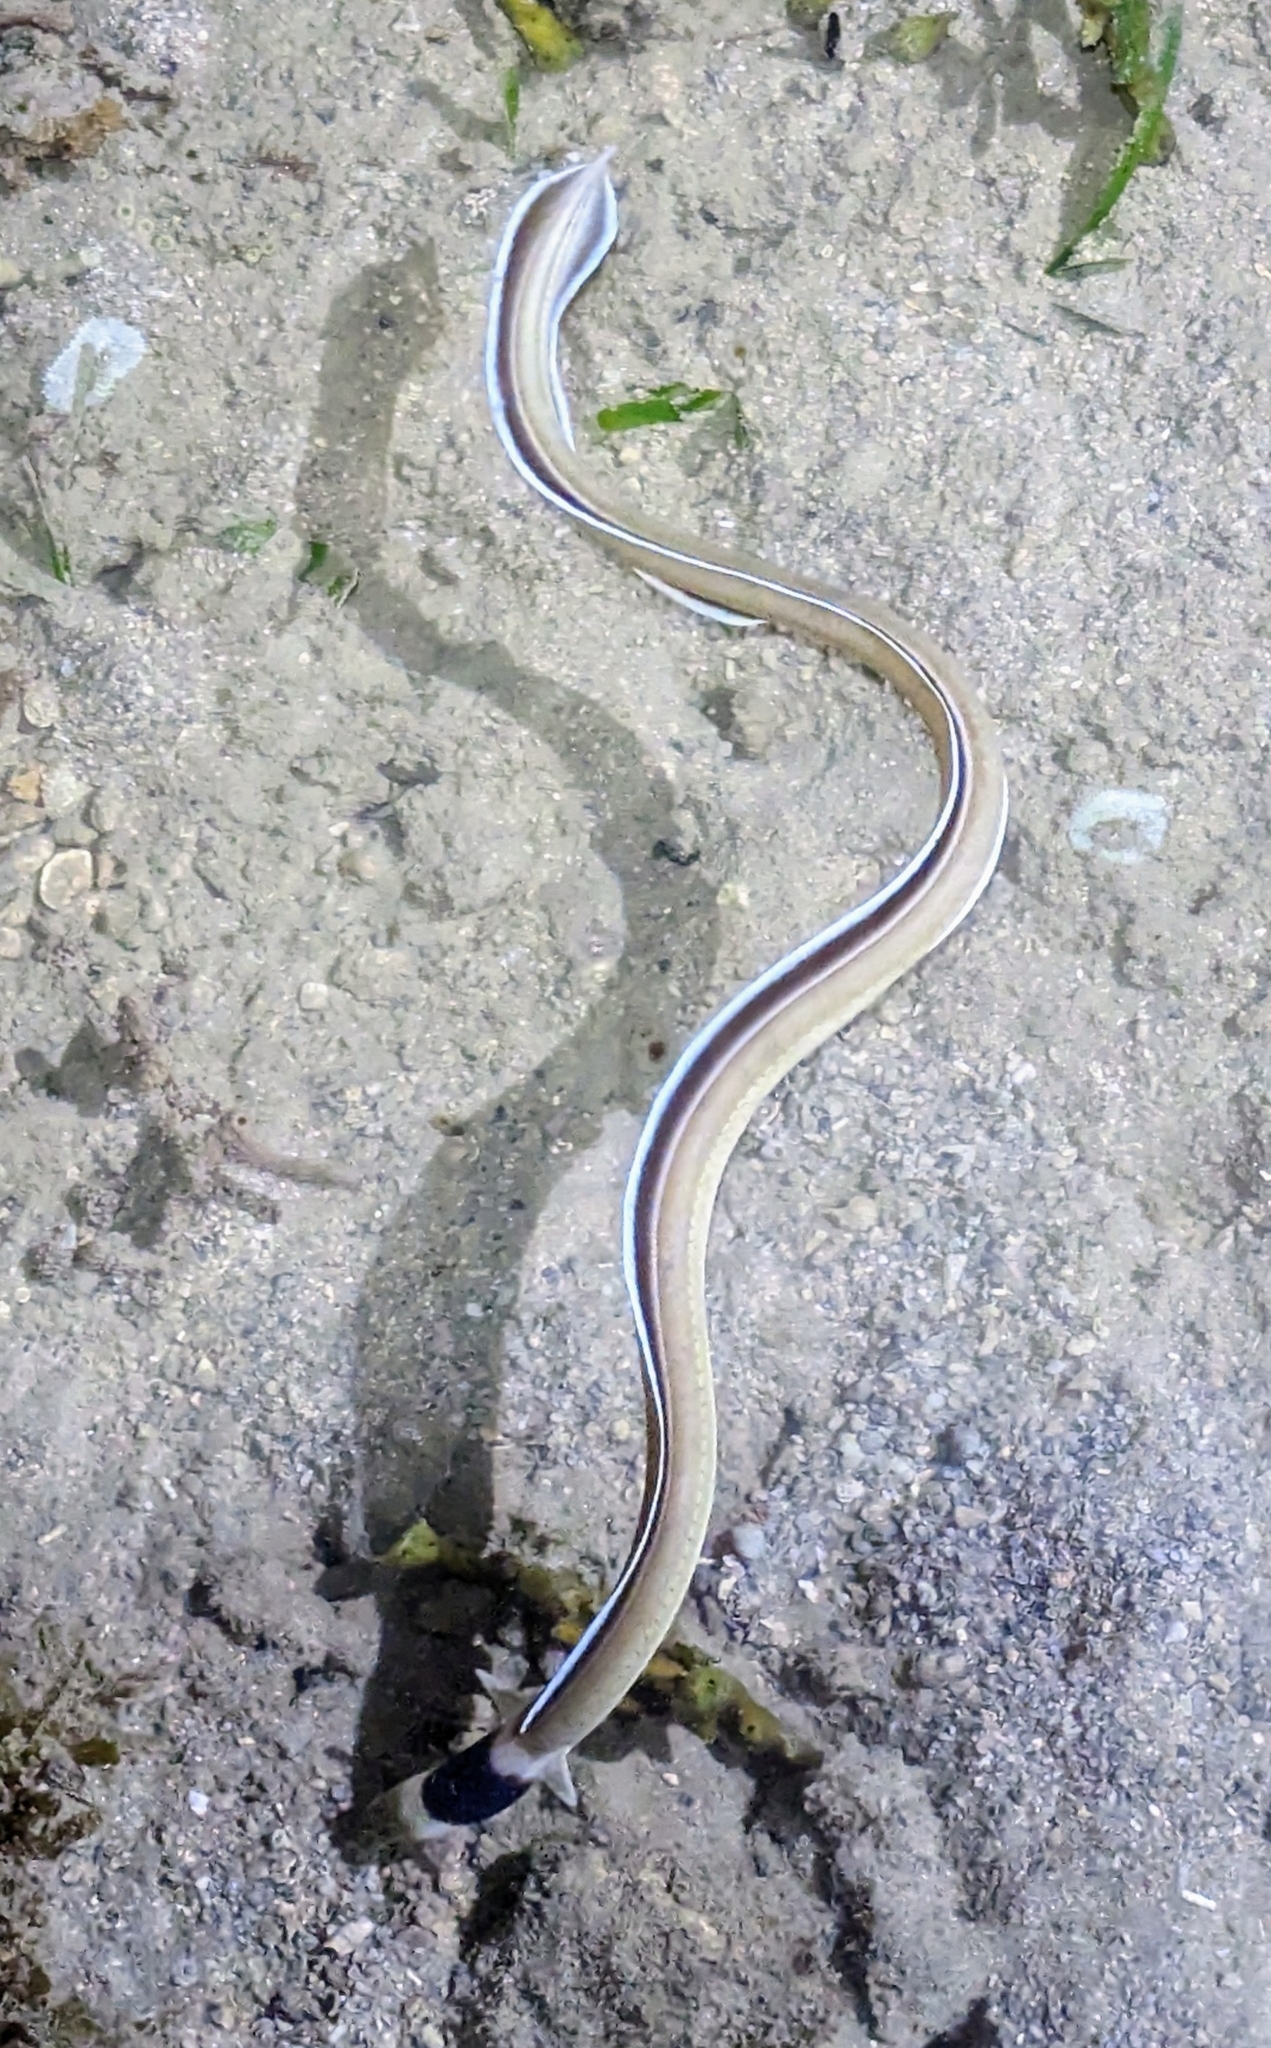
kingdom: Animalia
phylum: Chordata
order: Anguilliformes
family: Ophichthidae
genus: Ophichthus
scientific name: Ophichthus cephalozona
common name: Dark-shouldered snake eel
